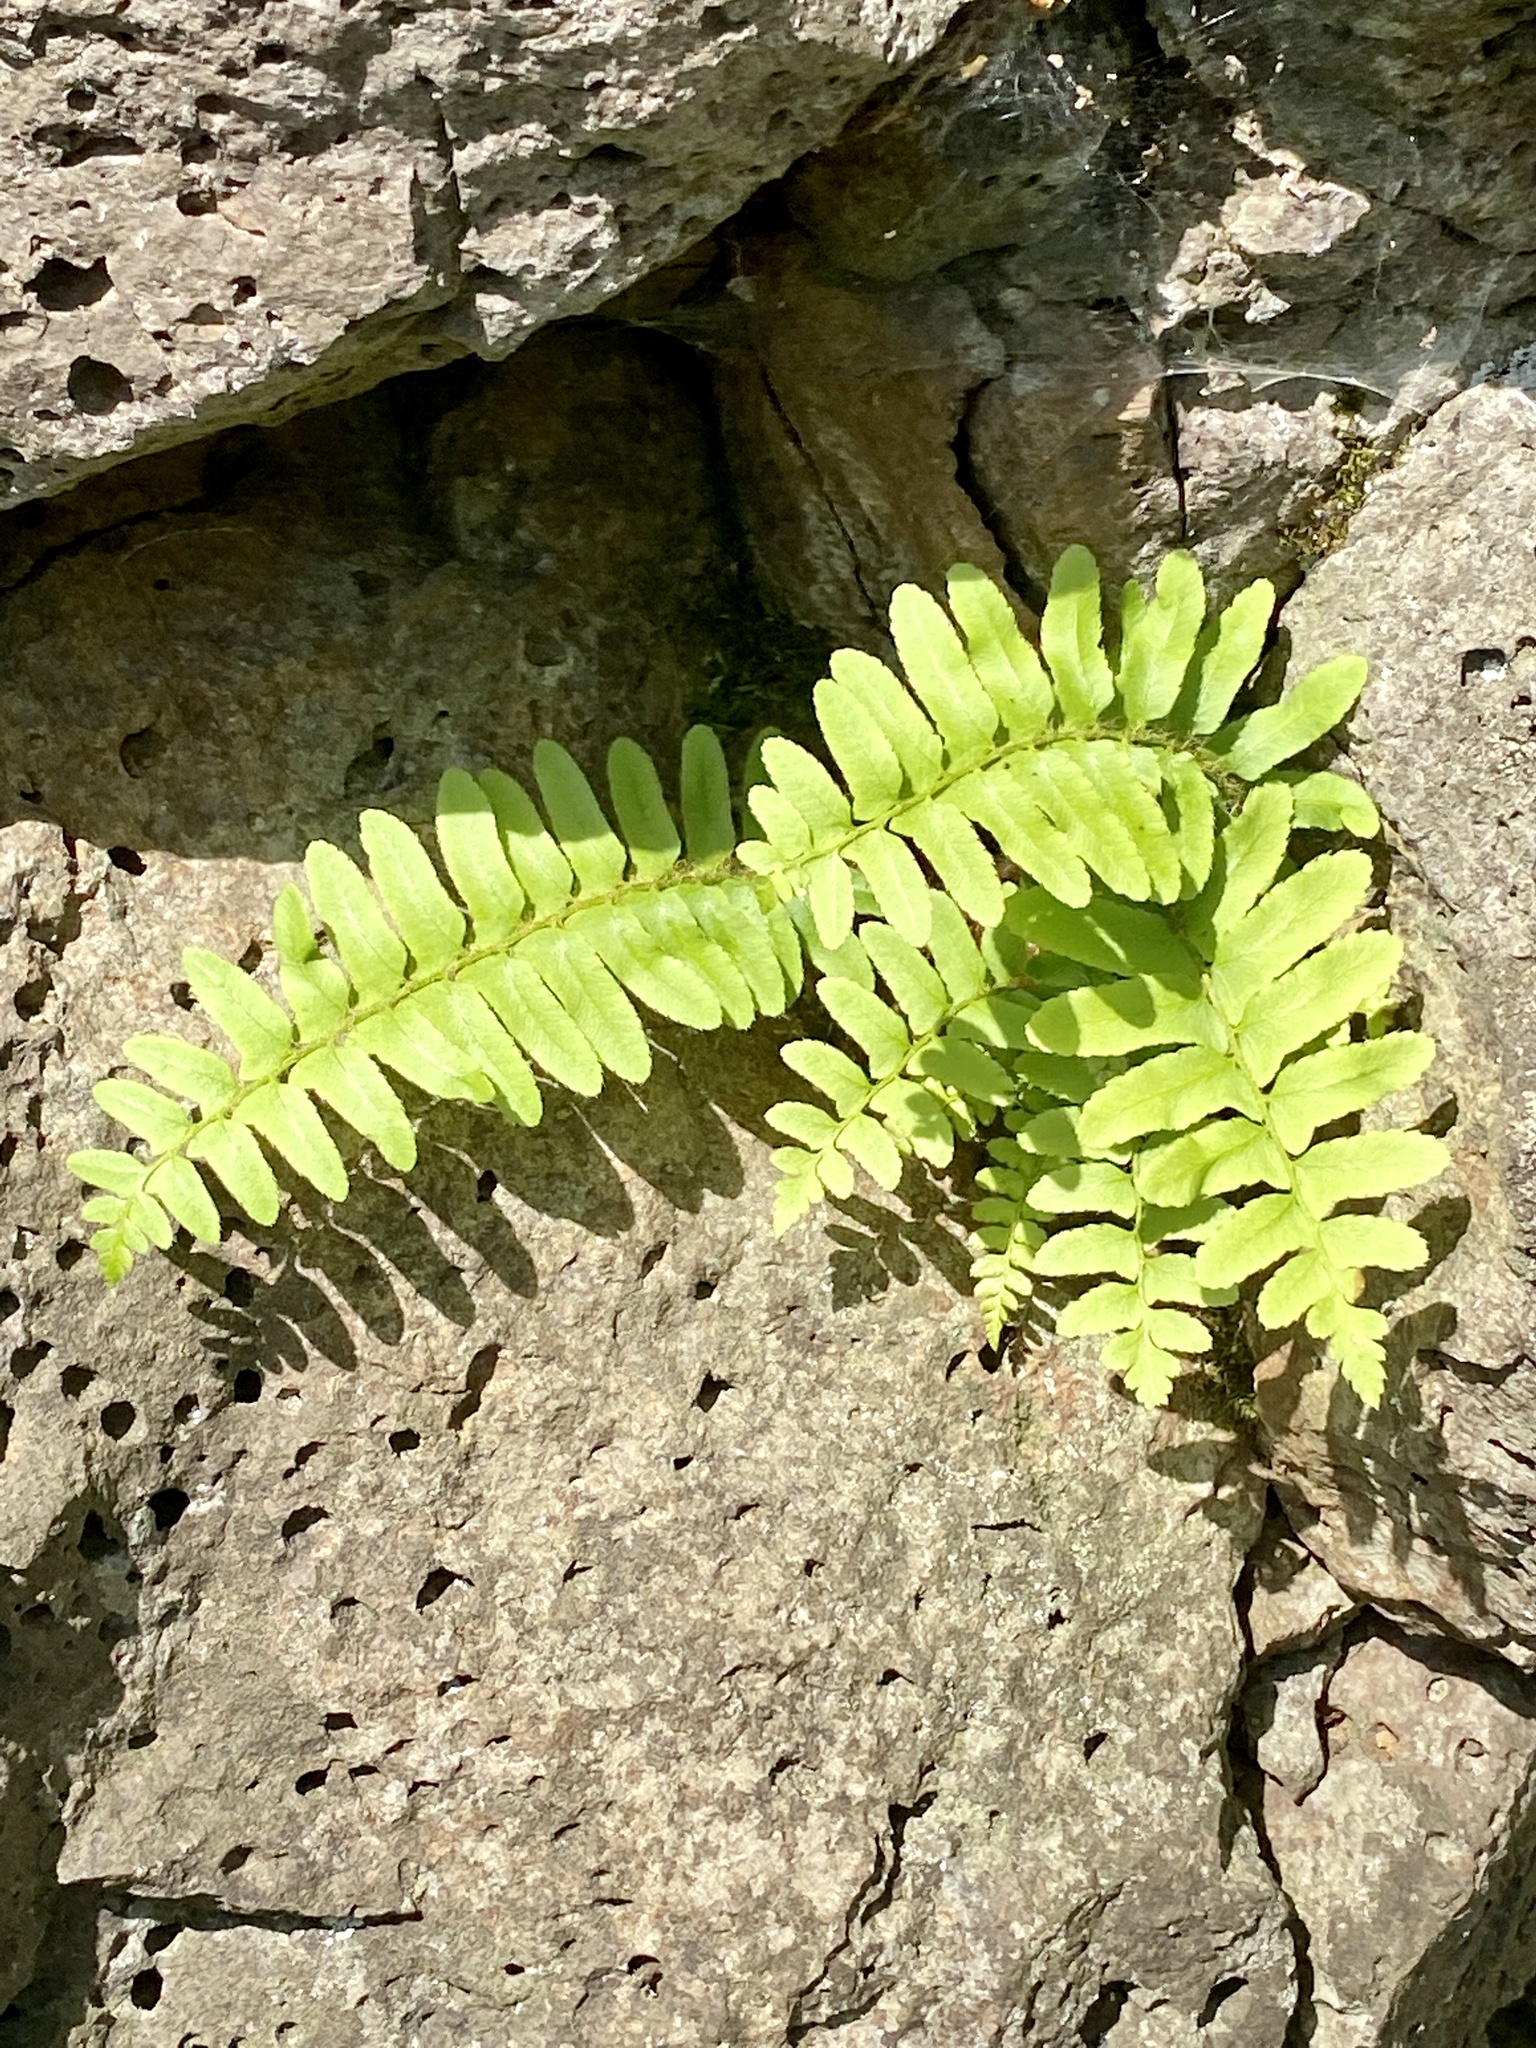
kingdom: Plantae
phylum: Tracheophyta
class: Polypodiopsida
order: Polypodiales
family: Dryopteridaceae
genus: Polystichum
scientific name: Polystichum acrostichoides
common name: Christmas fern
